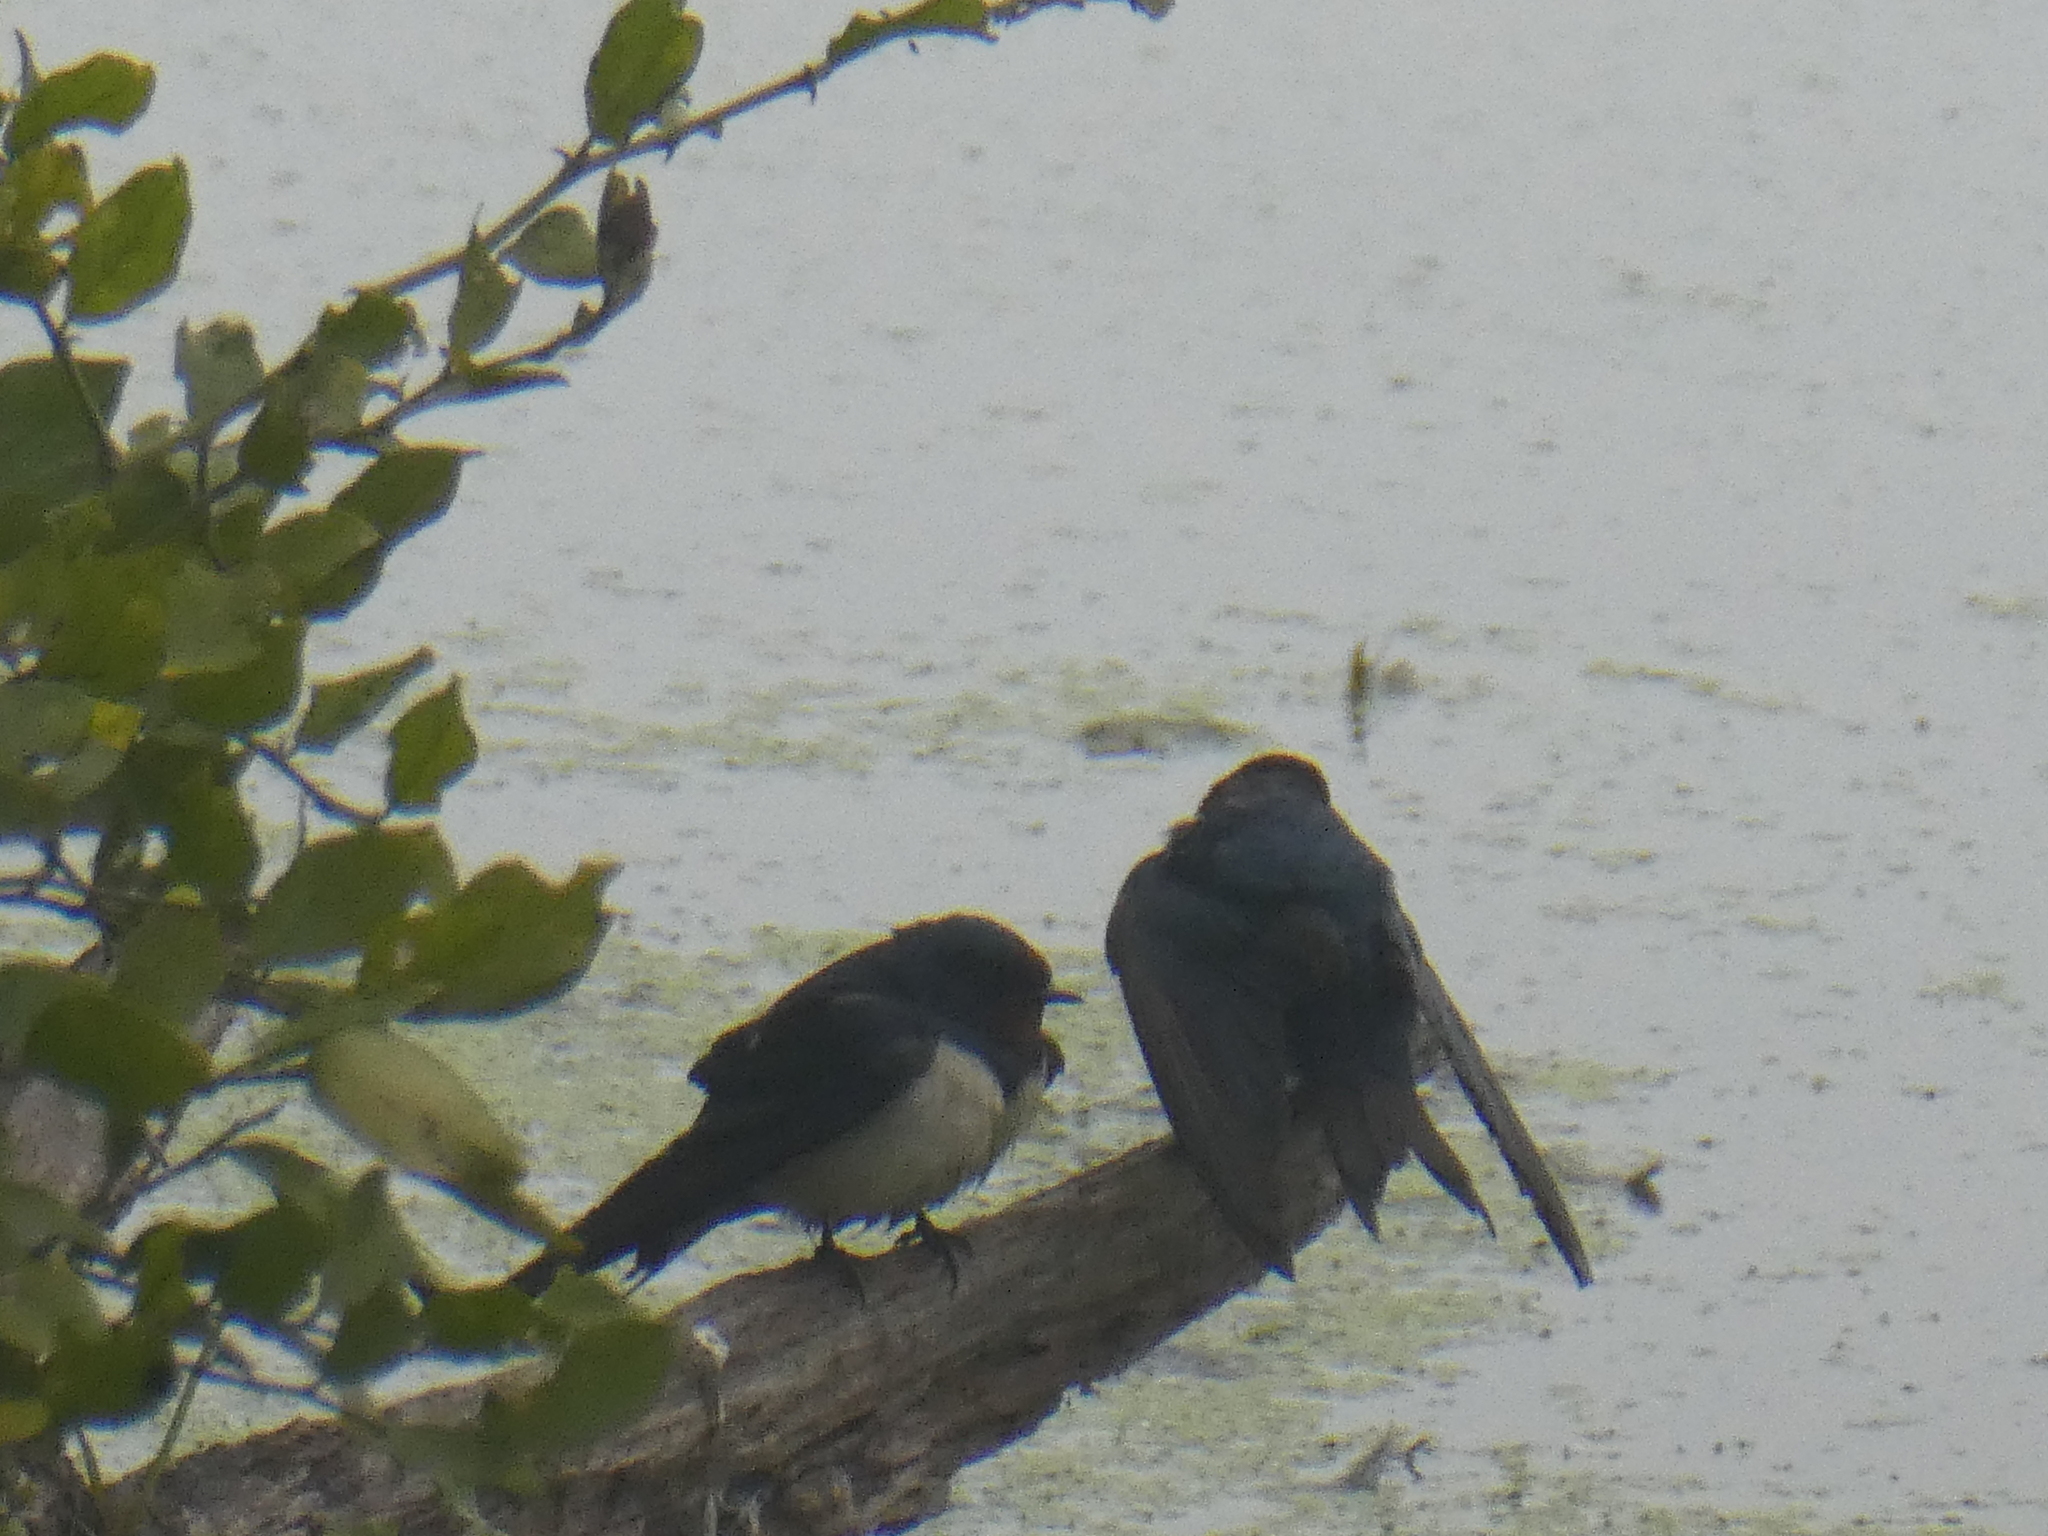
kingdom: Animalia
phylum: Chordata
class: Aves
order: Passeriformes
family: Hirundinidae
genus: Hirundo
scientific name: Hirundo rustica
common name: Barn swallow
